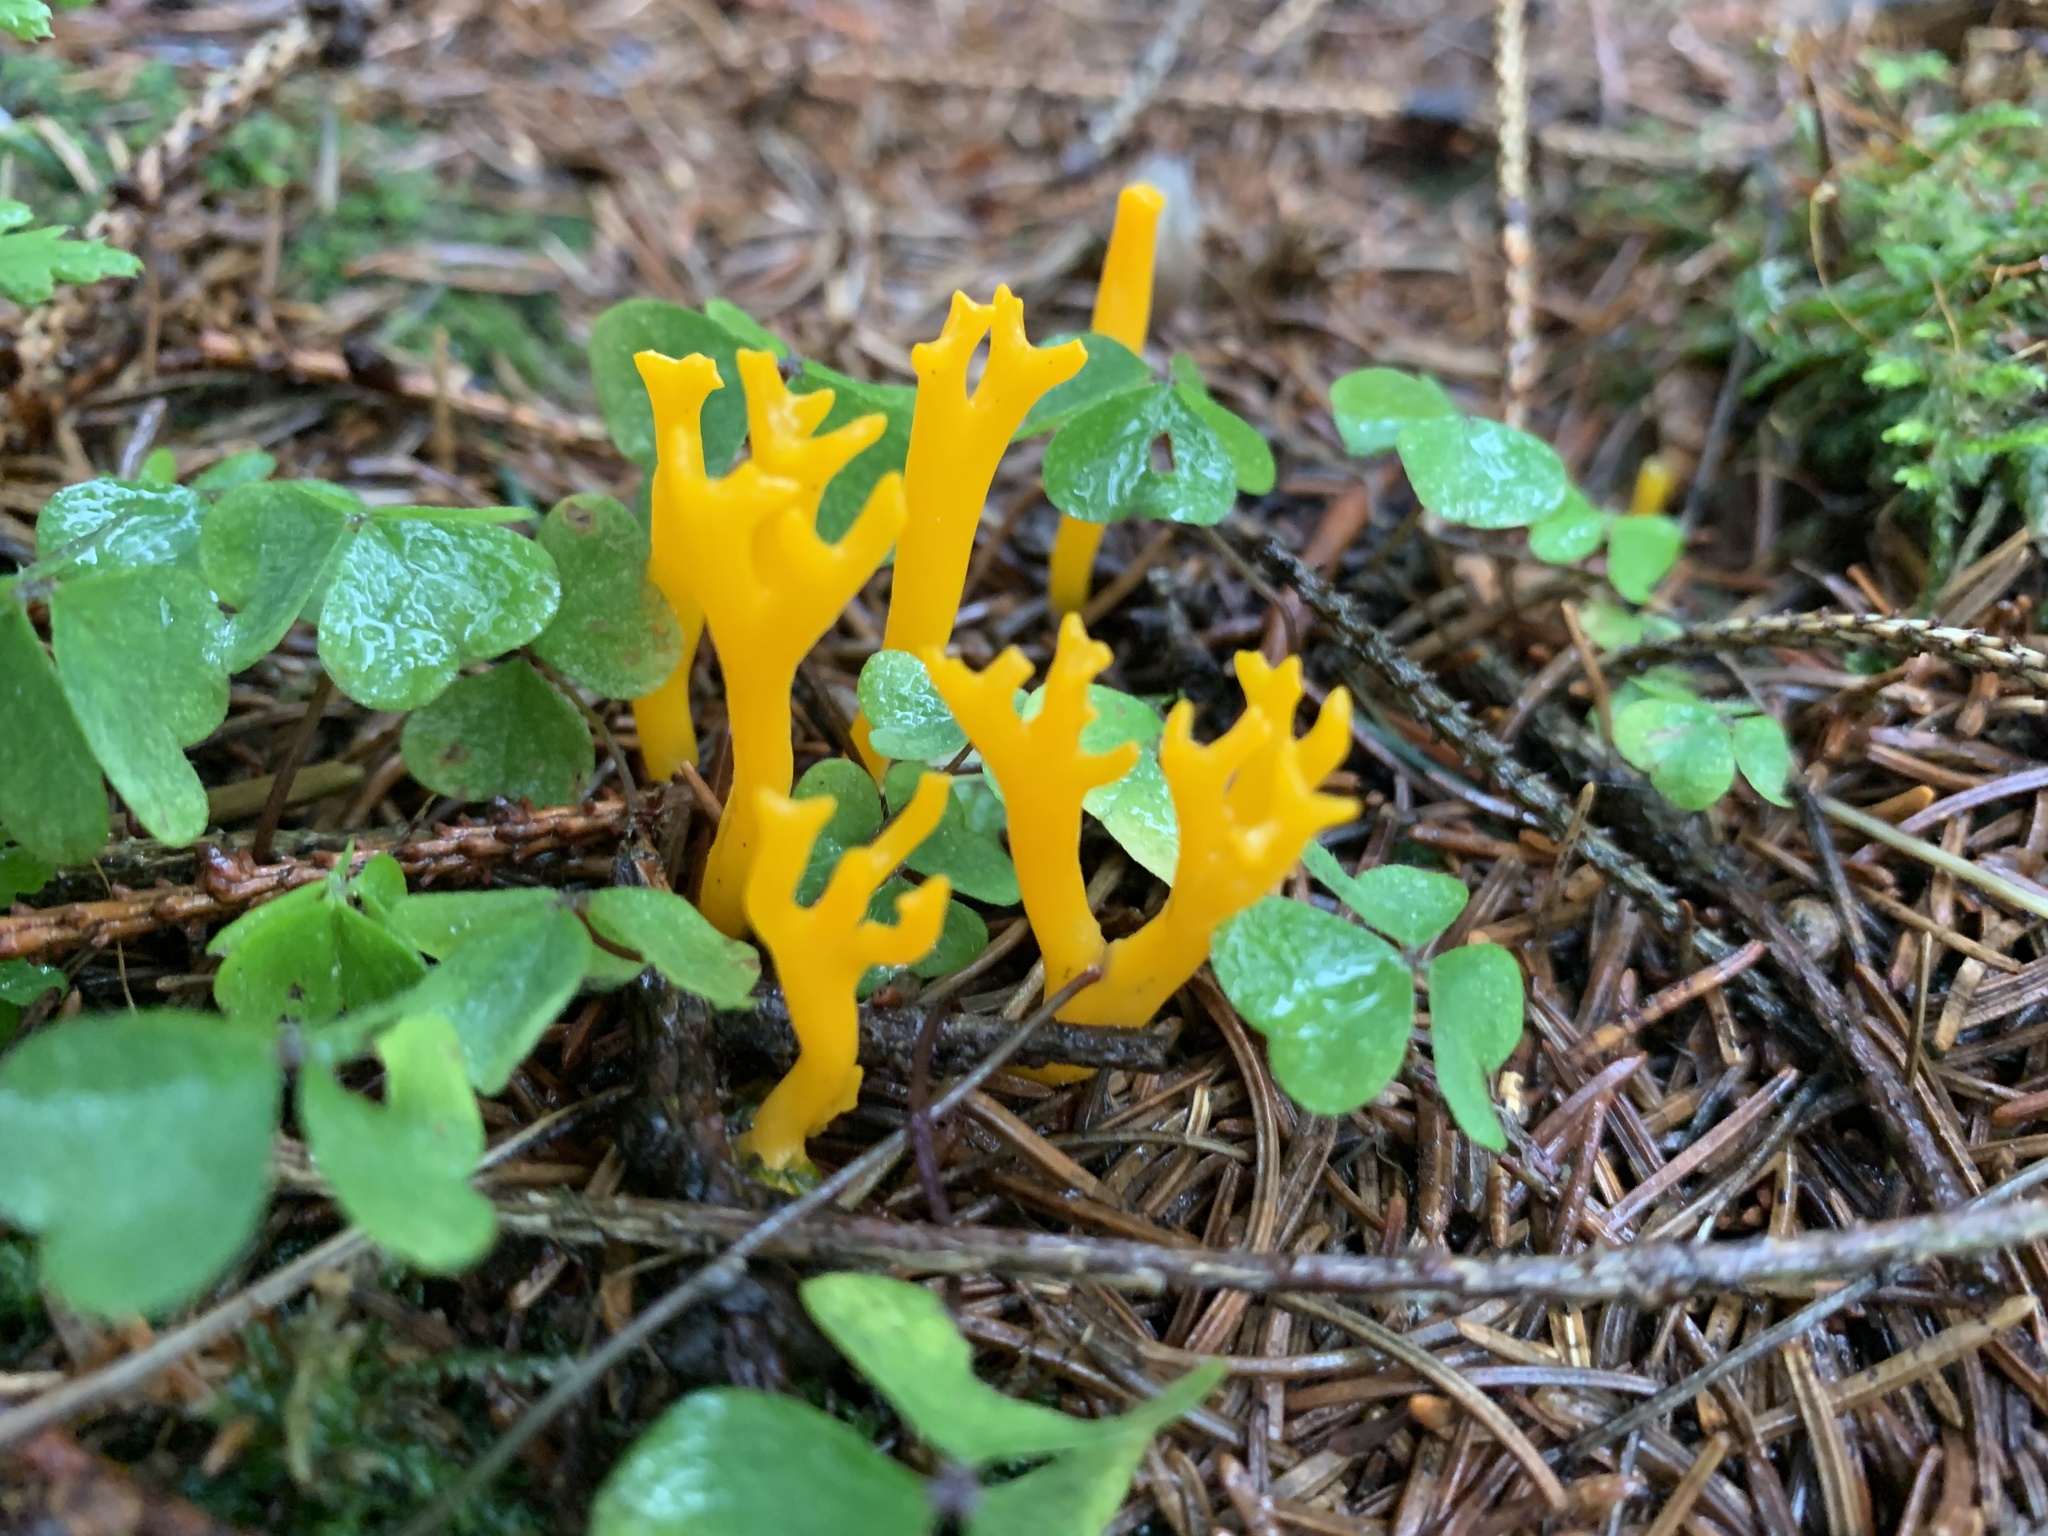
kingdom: Fungi
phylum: Basidiomycota
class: Dacrymycetes
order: Dacrymycetales
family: Dacrymycetaceae
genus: Calocera
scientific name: Calocera viscosa
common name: Yellow stagshorn
